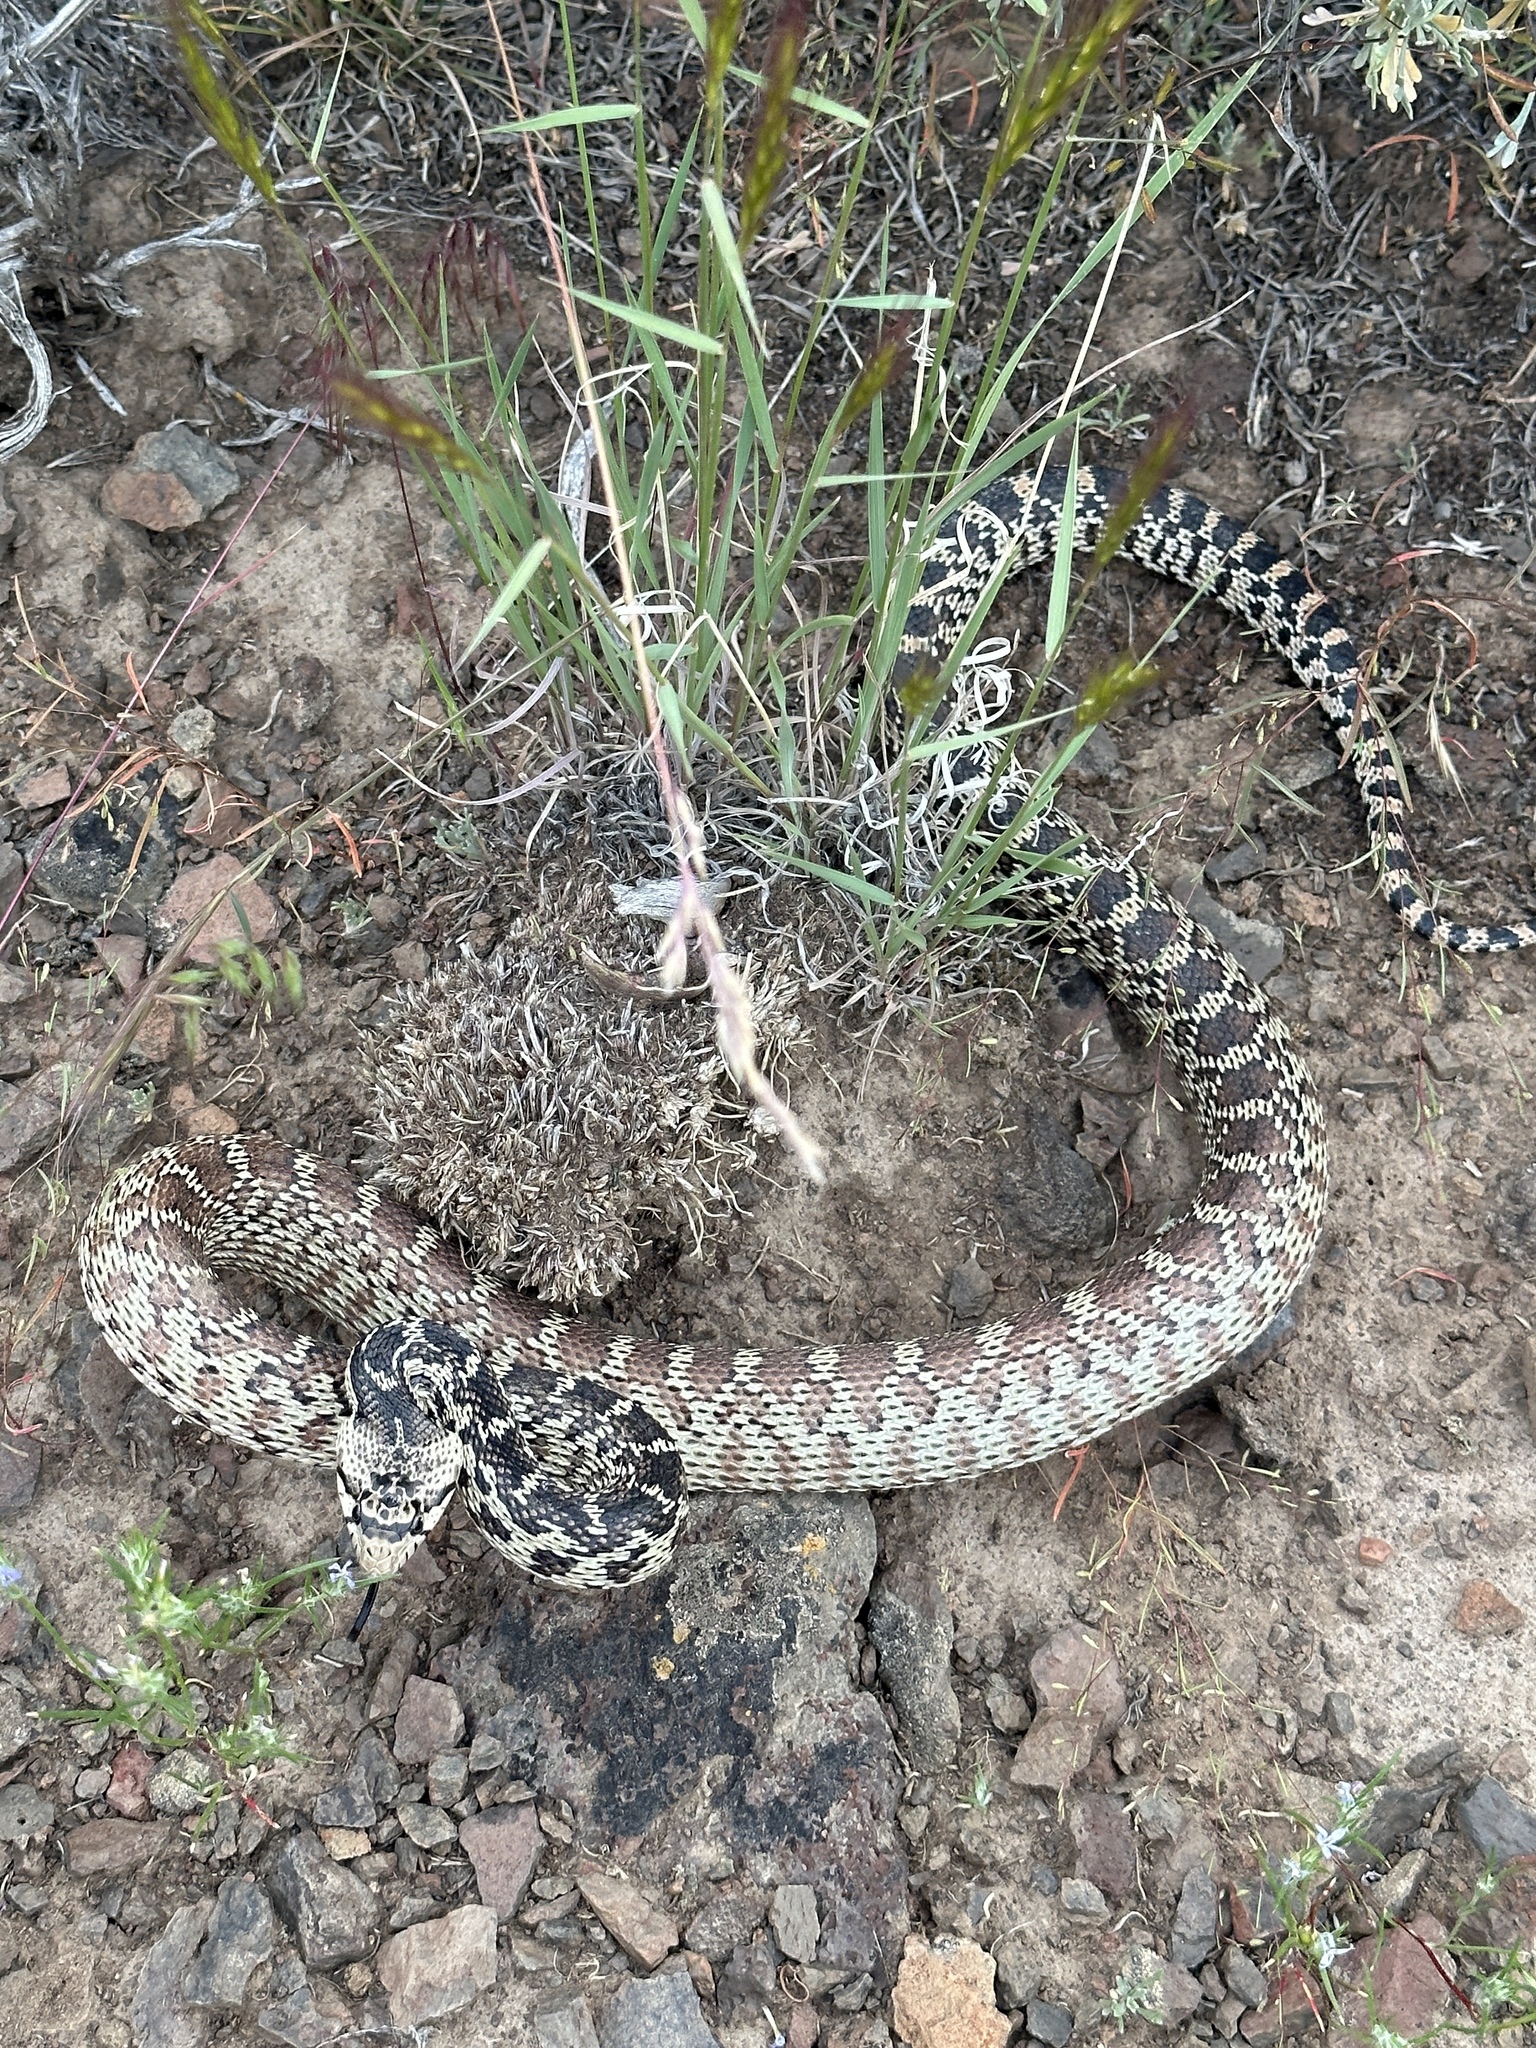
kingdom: Animalia
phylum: Chordata
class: Squamata
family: Colubridae
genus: Pituophis
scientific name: Pituophis catenifer
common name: Gopher snake
